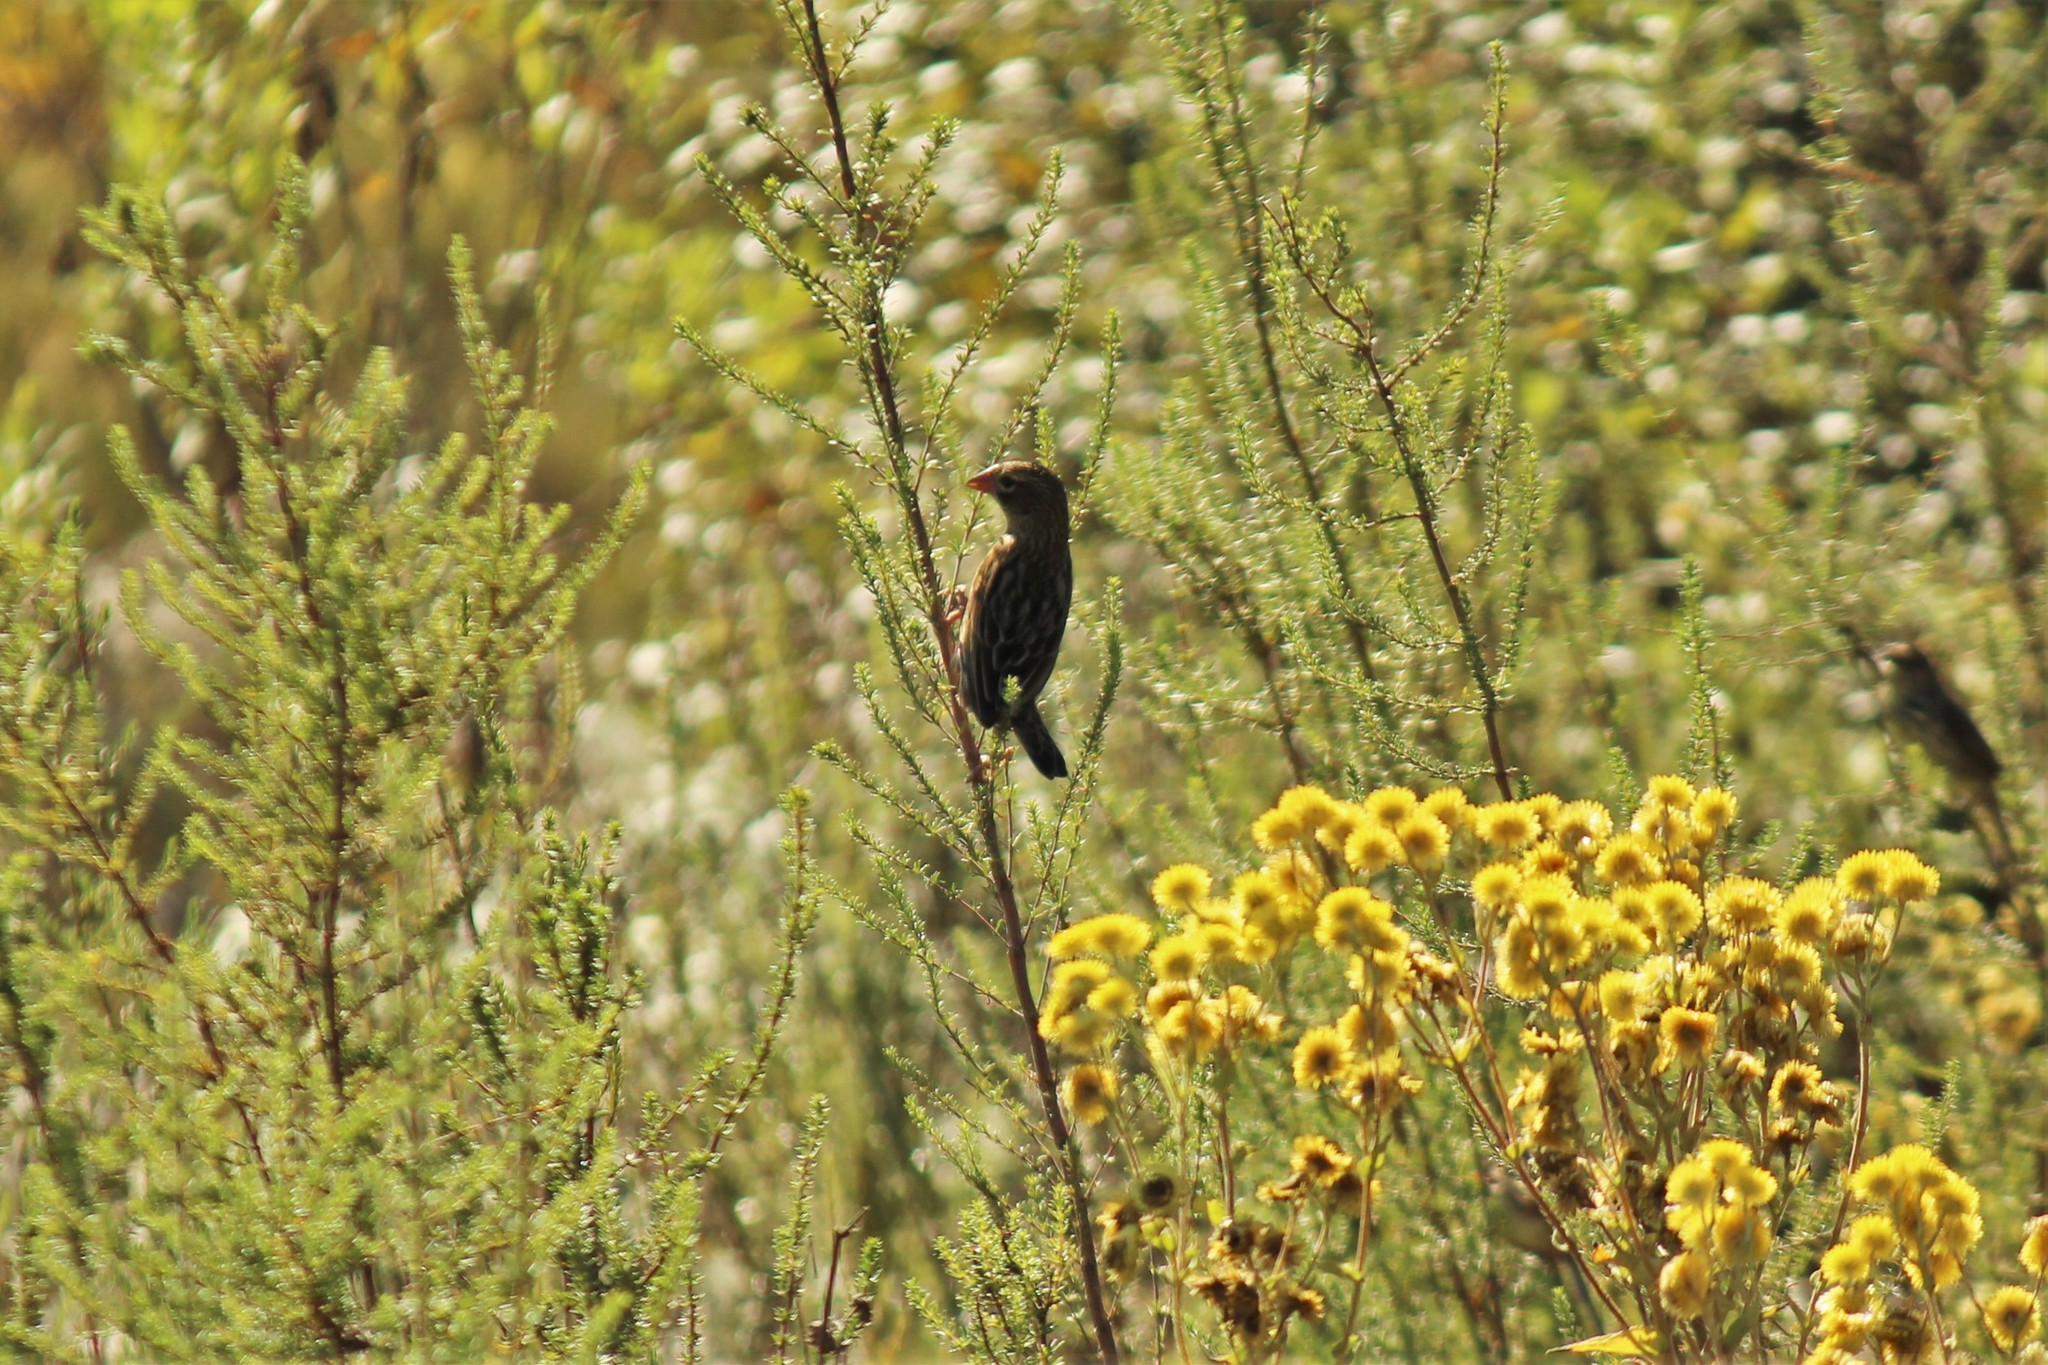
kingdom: Animalia
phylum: Chordata
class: Aves
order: Passeriformes
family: Ploceidae
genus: Euplectes
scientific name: Euplectes capensis
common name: Yellow bishop
